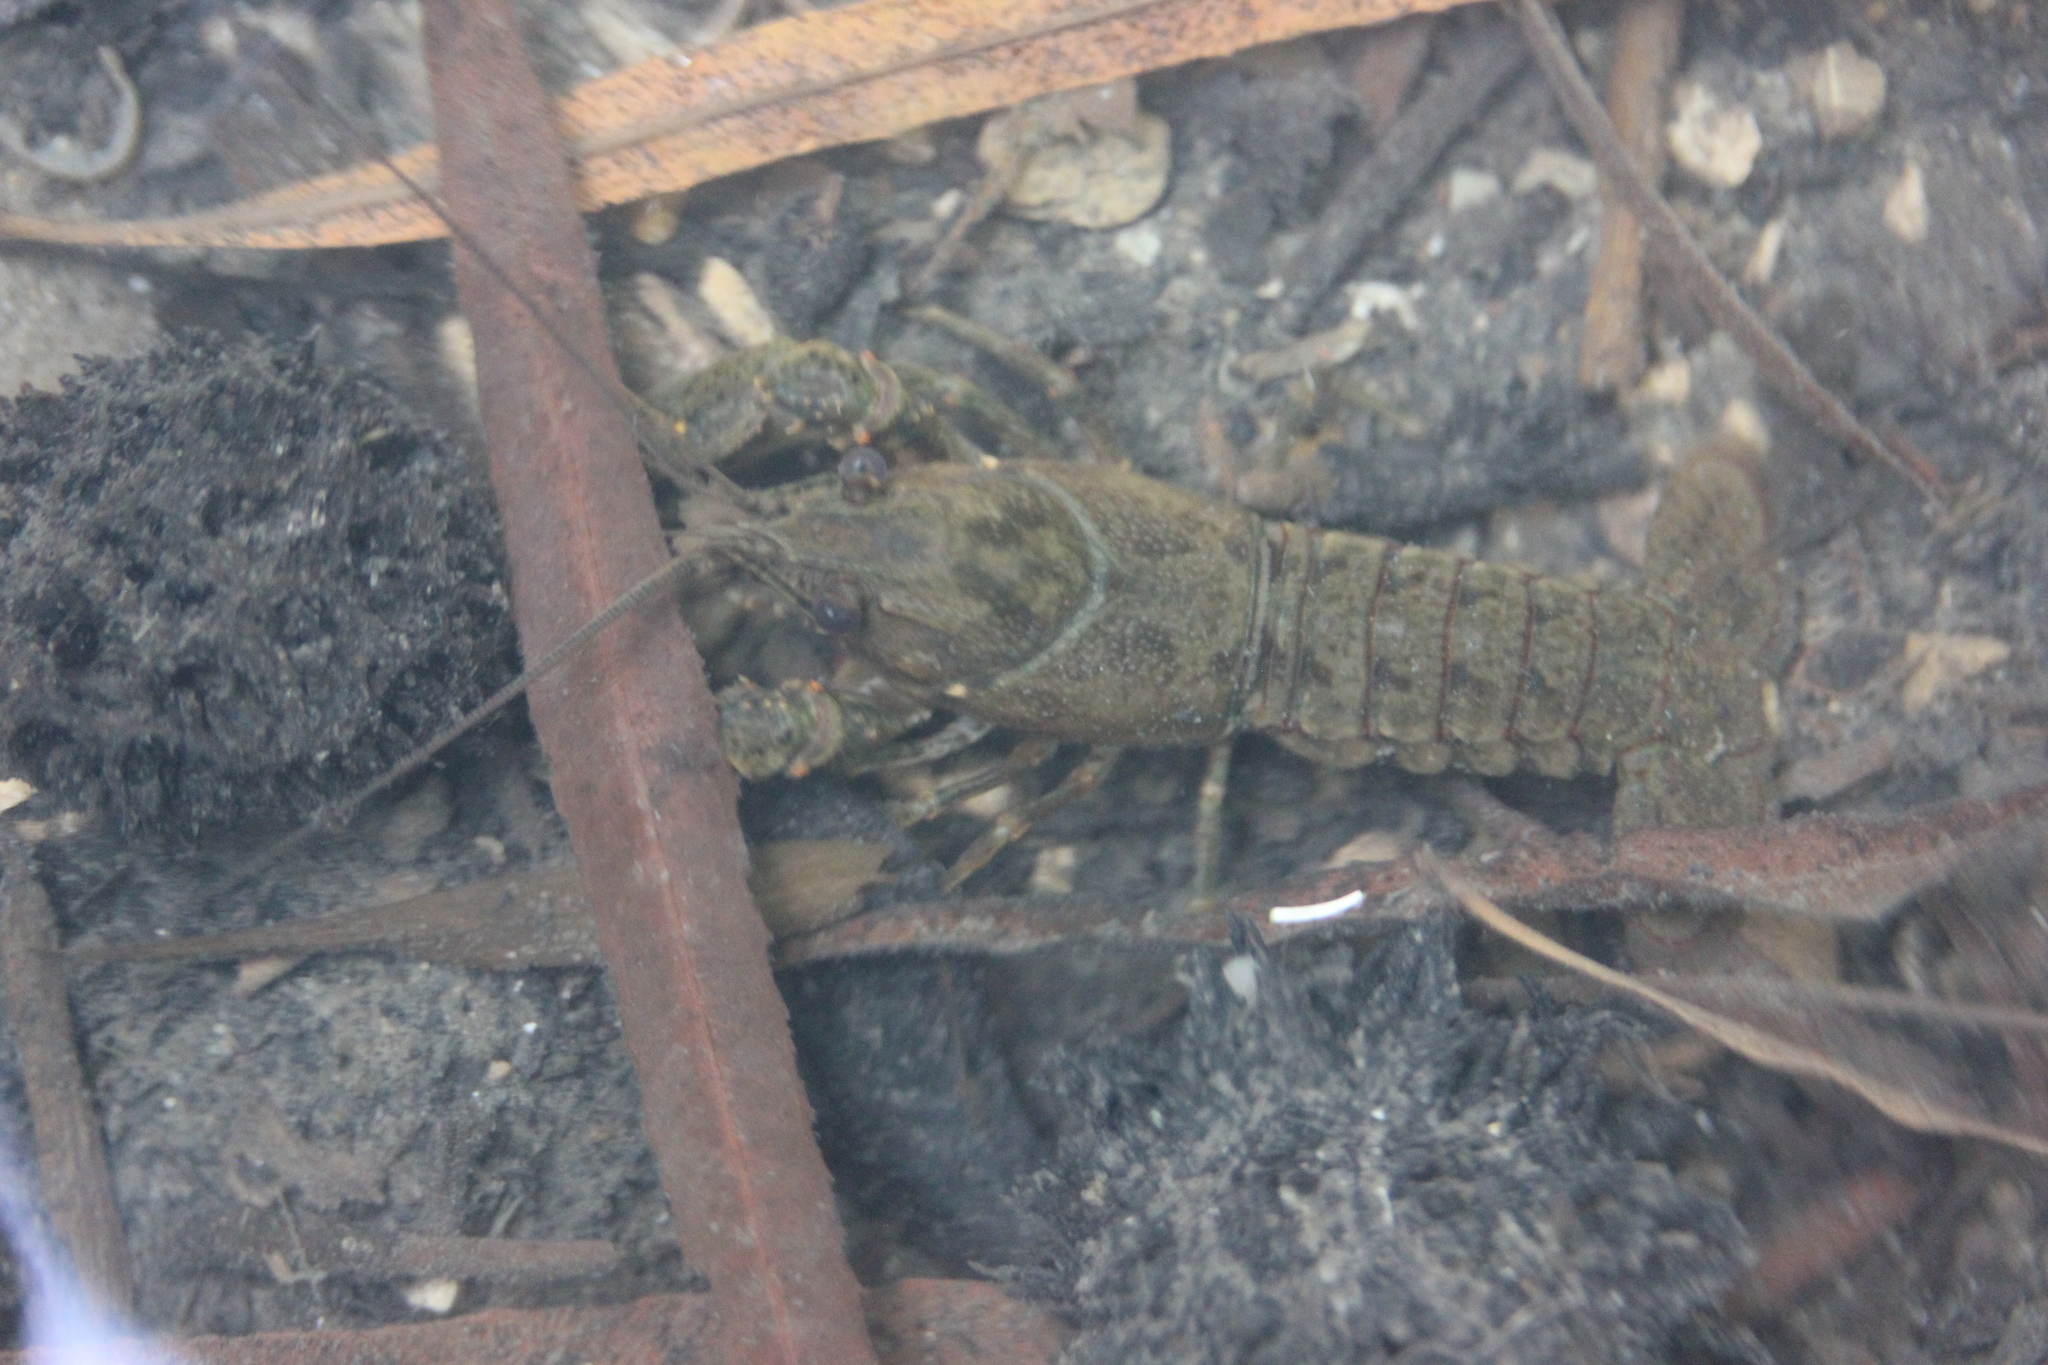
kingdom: Animalia
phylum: Arthropoda
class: Malacostraca
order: Decapoda
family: Cambaridae
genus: Faxonius
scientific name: Faxonius virilis
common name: Virile crayfish
